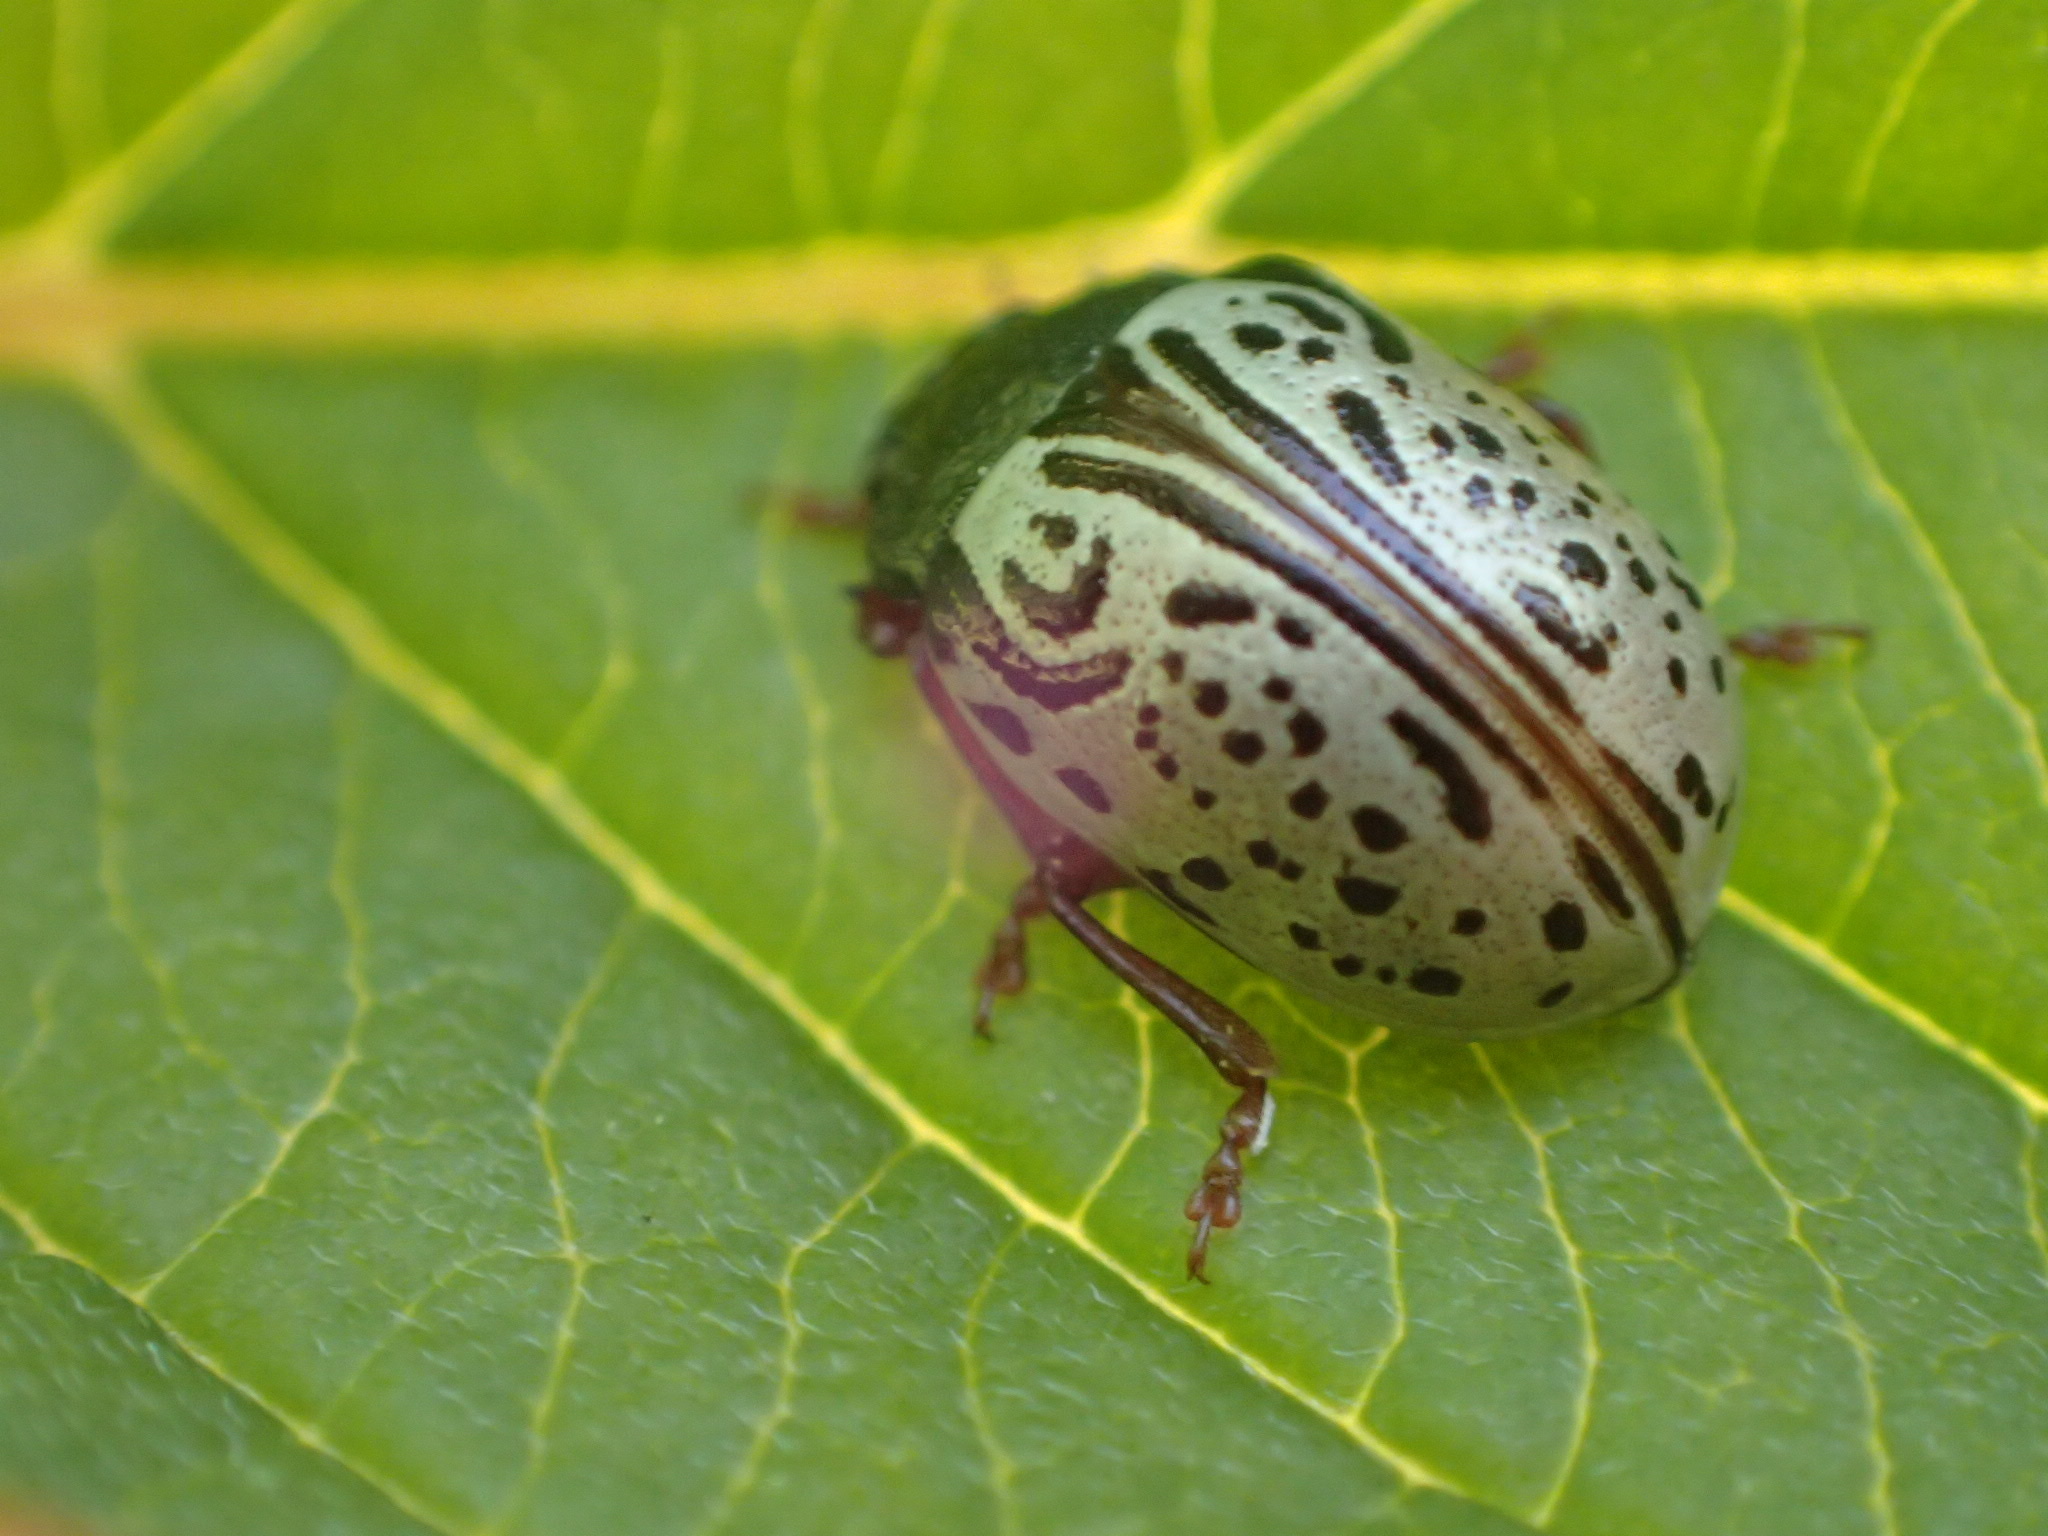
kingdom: Animalia
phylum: Arthropoda
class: Insecta
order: Coleoptera
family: Chrysomelidae
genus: Calligrapha
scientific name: Calligrapha philadelphica
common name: Dogwood leaf beetle
